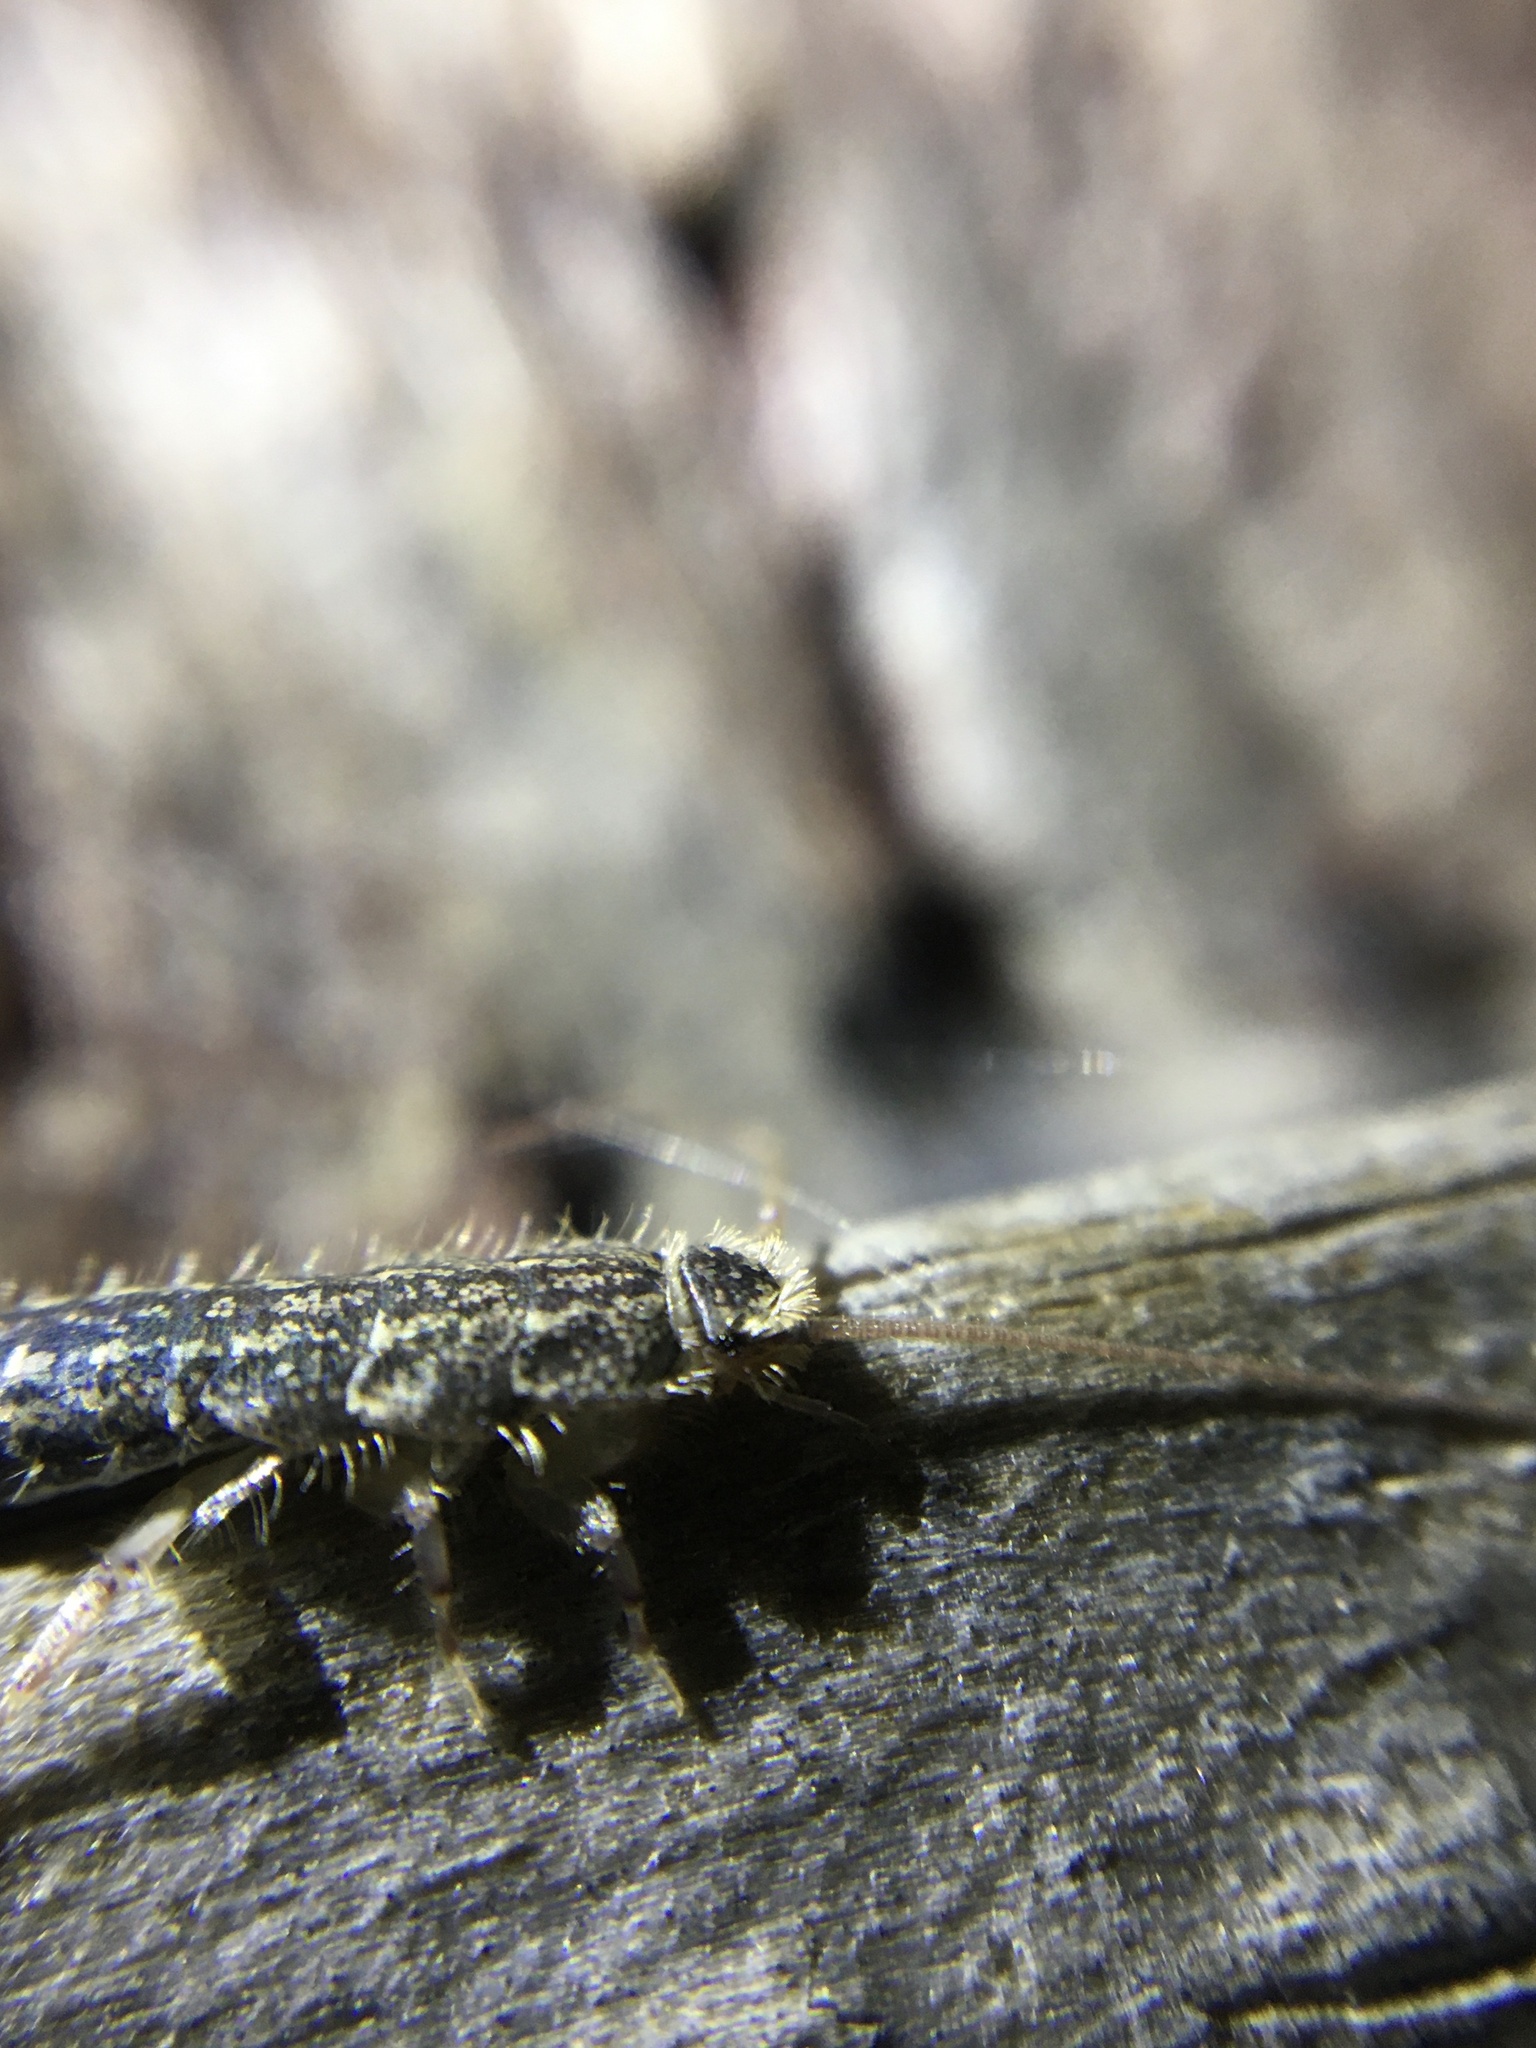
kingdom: Animalia
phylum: Arthropoda
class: Insecta
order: Zygentoma
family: Lepismatidae
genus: Ctenolepisma
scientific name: Ctenolepisma lineata
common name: Four-lined silverfish
